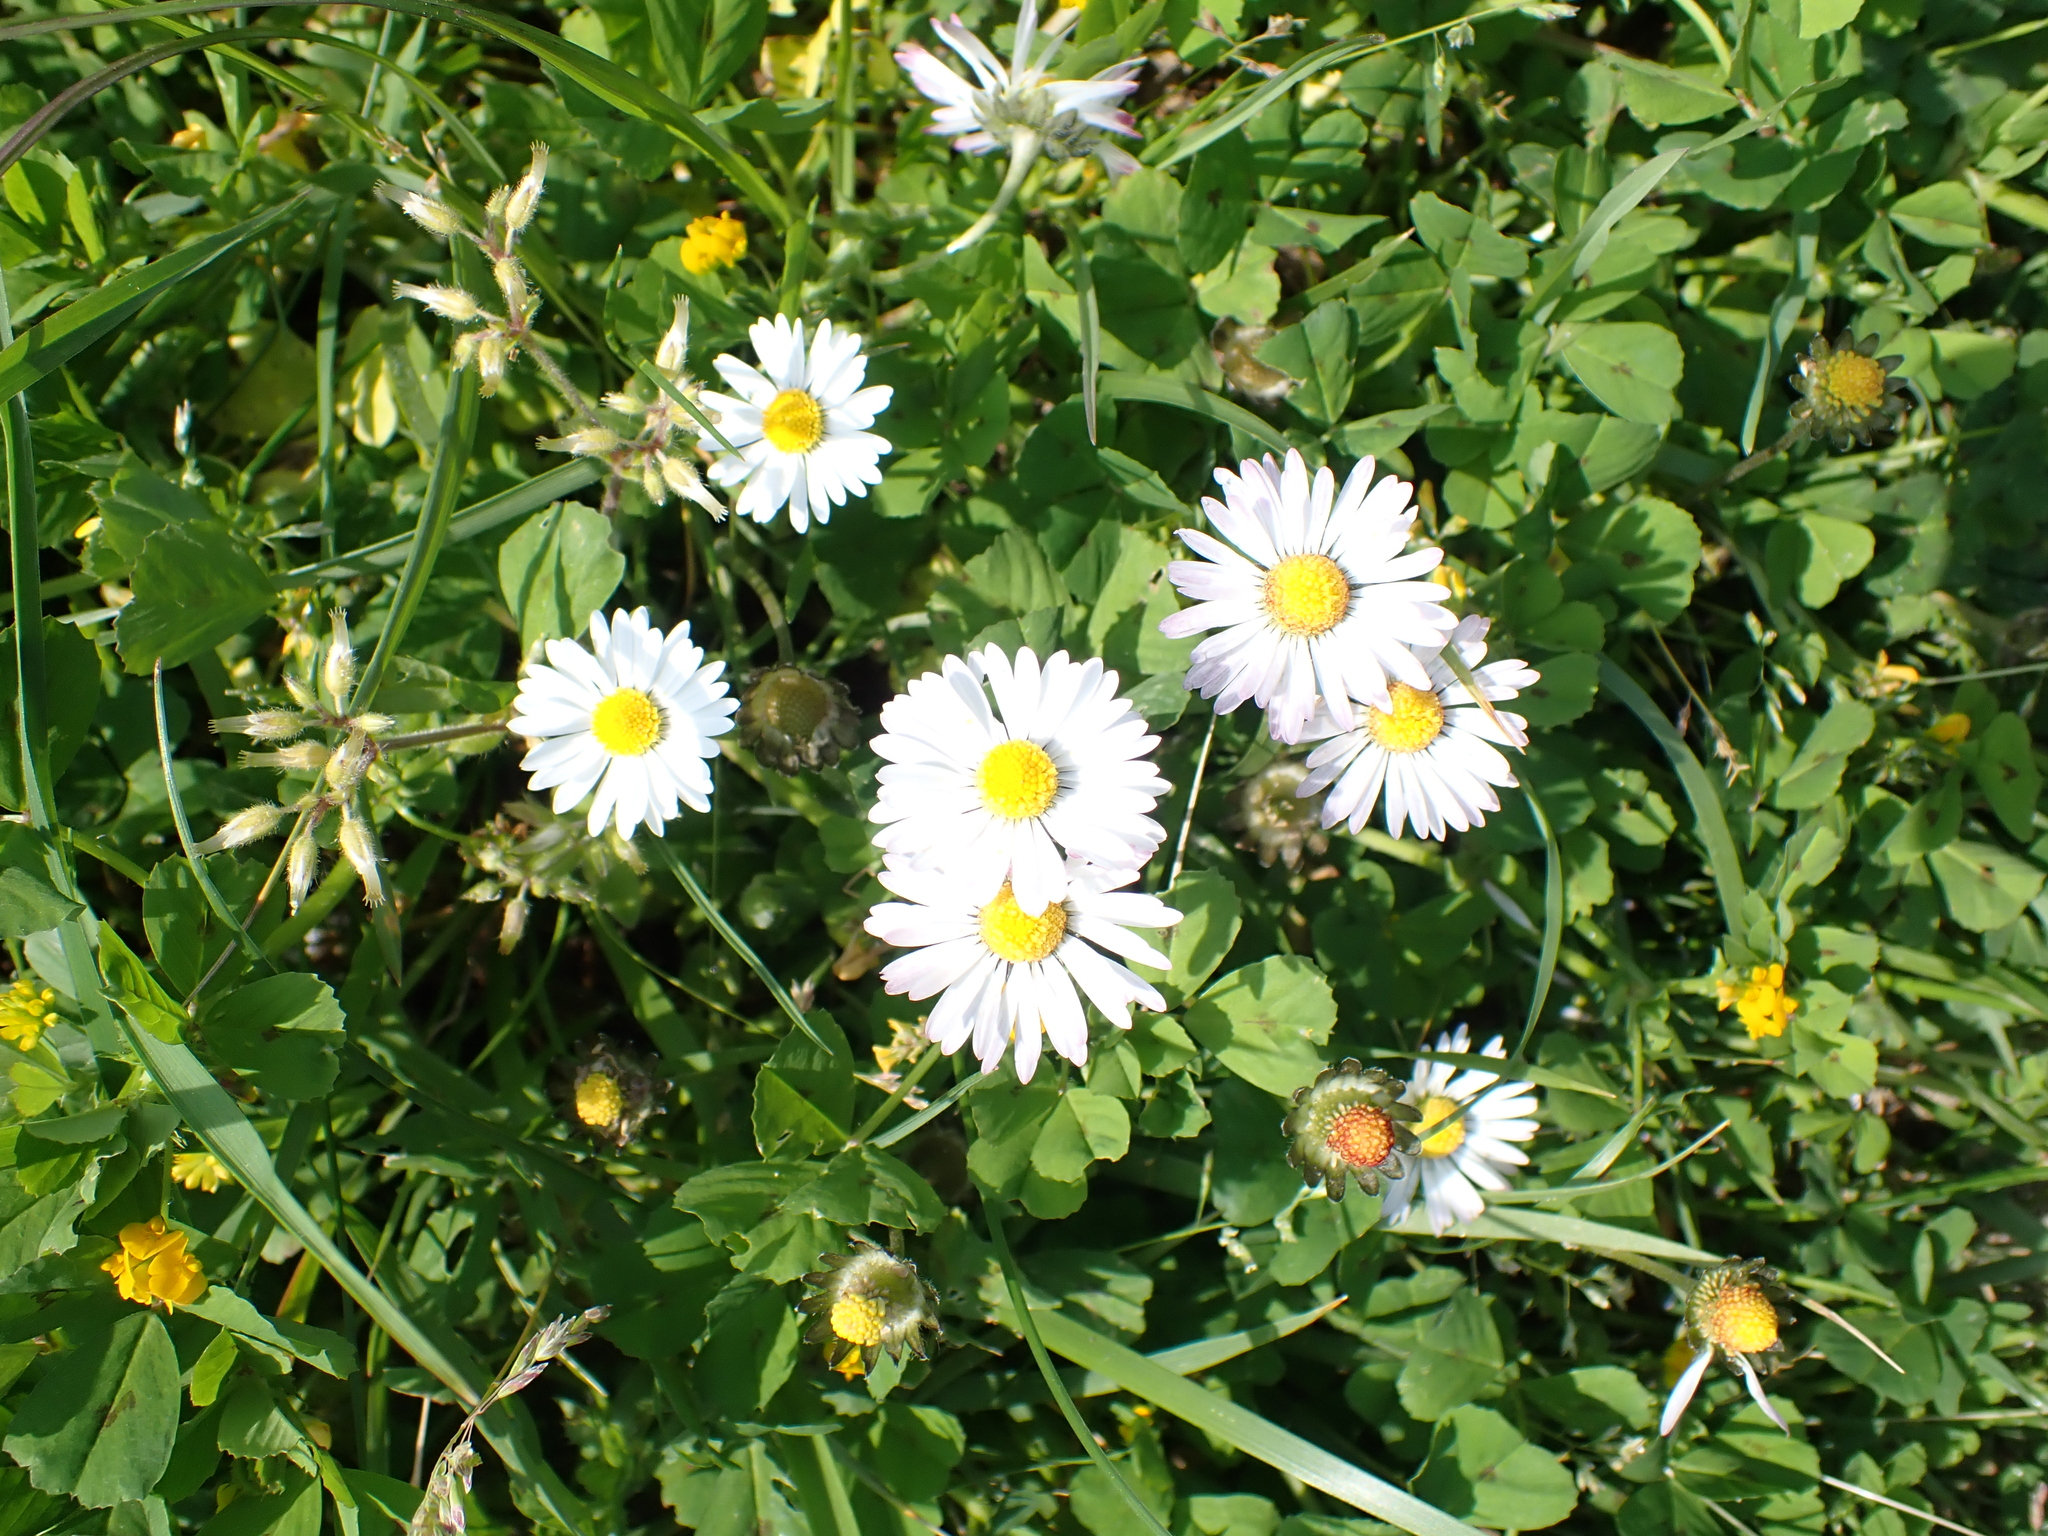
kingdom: Plantae
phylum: Tracheophyta
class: Magnoliopsida
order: Asterales
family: Asteraceae
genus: Bellis
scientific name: Bellis perennis
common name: Lawndaisy
